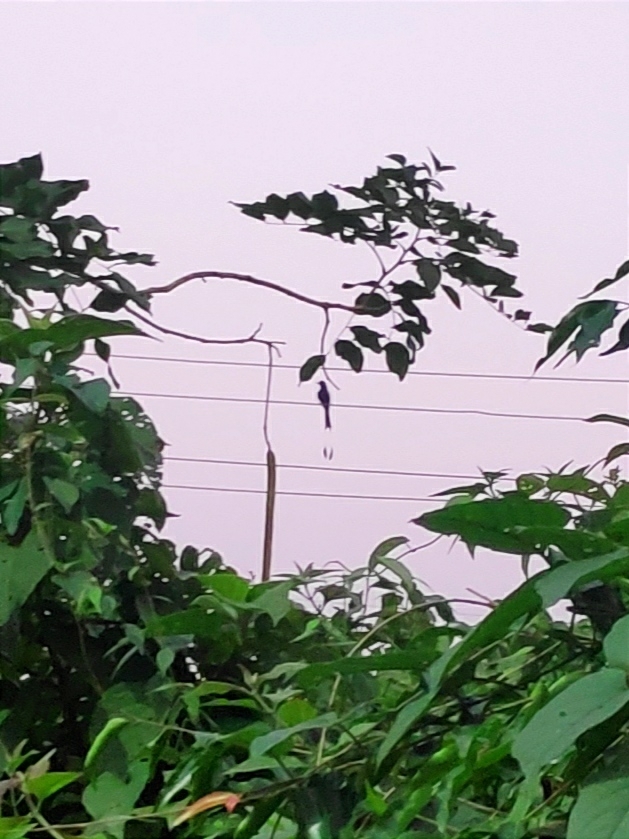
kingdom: Animalia
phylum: Chordata
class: Aves
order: Passeriformes
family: Dicruridae
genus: Dicrurus
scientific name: Dicrurus paradiseus
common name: Greater racket-tailed drongo
